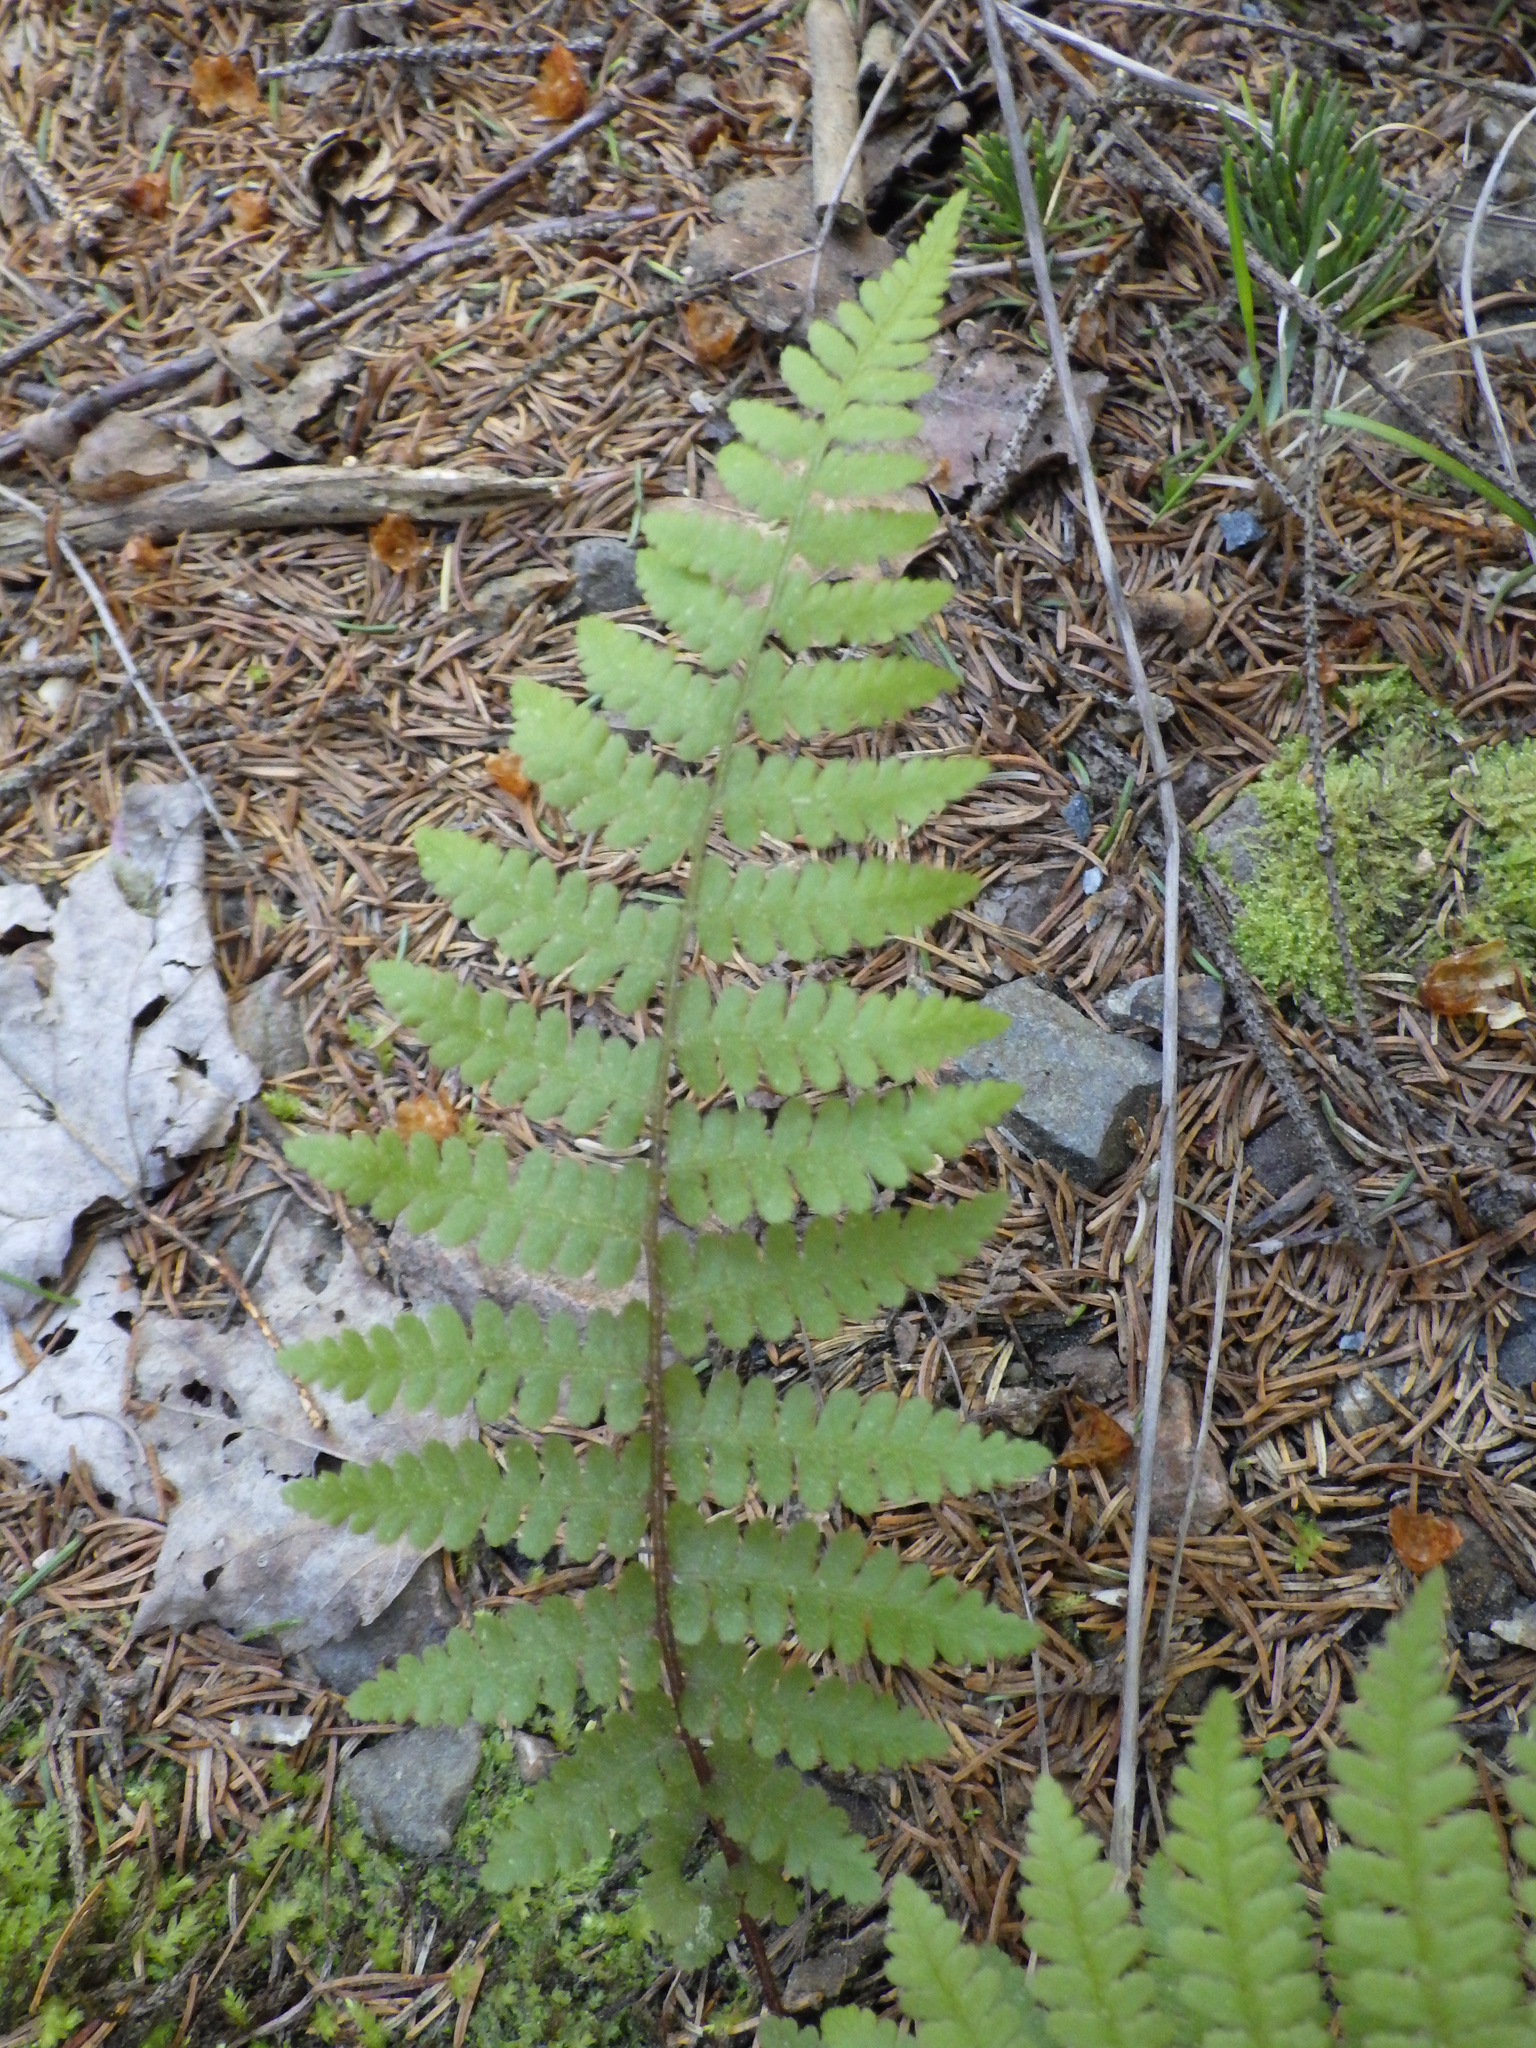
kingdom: Plantae
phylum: Tracheophyta
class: Polypodiopsida
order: Polypodiales
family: Thelypteridaceae
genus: Amauropelta
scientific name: Amauropelta noveboracensis
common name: New york fern
